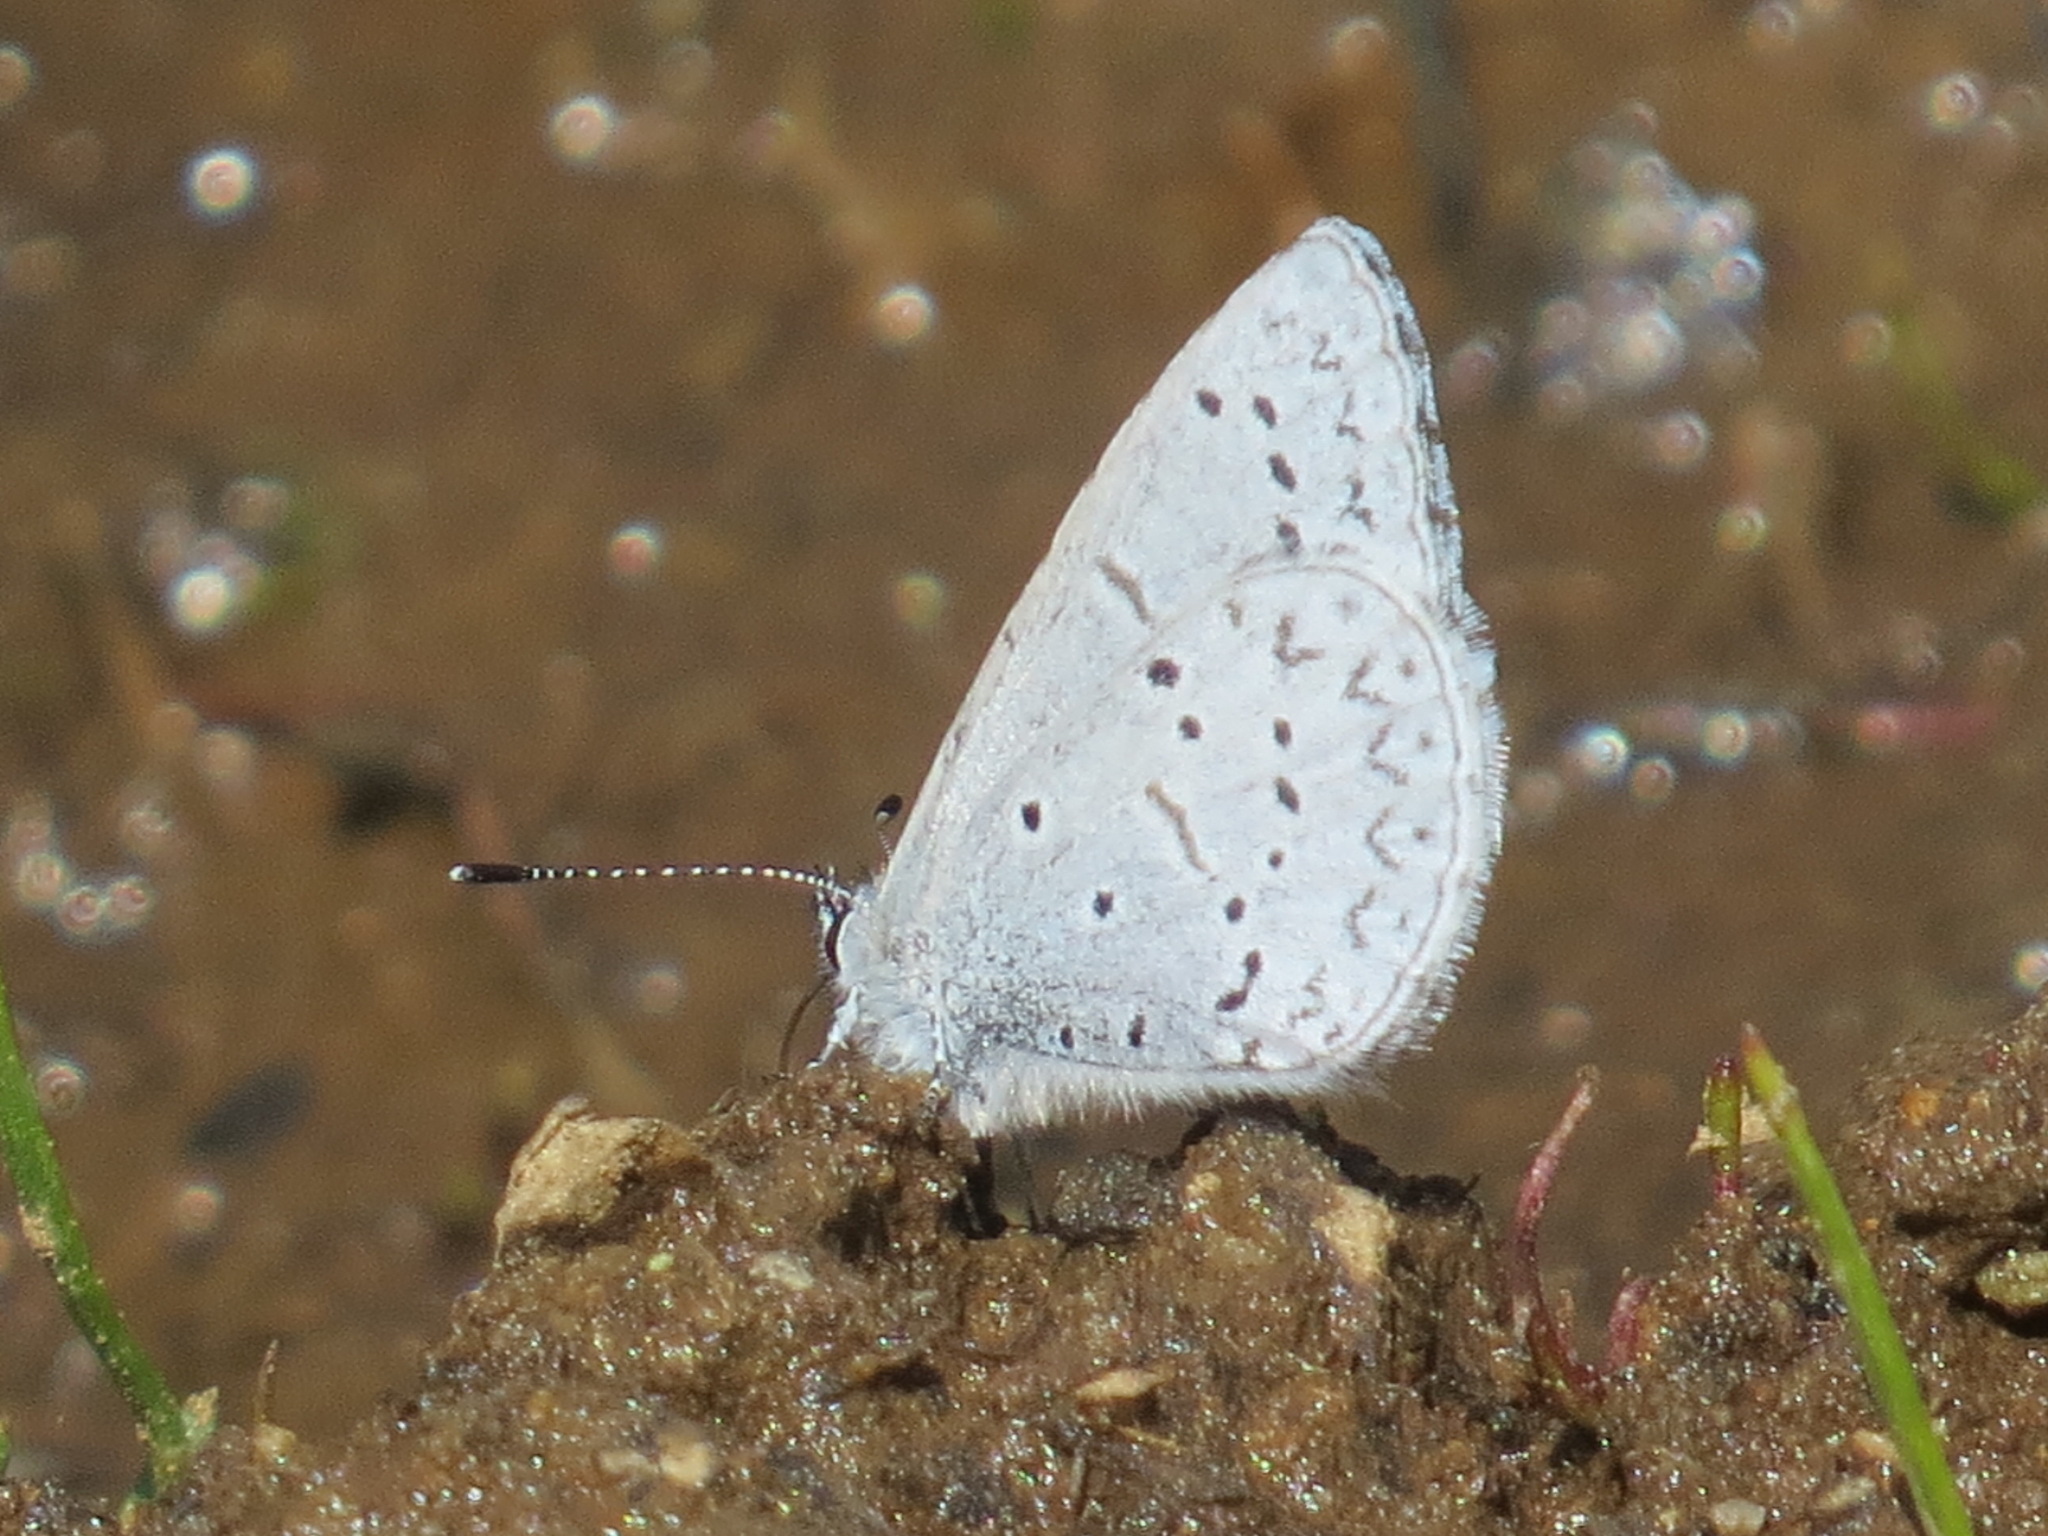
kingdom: Animalia
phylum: Arthropoda
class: Insecta
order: Lepidoptera
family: Lycaenidae
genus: Celastrina
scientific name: Celastrina ladon
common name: Spring azure
